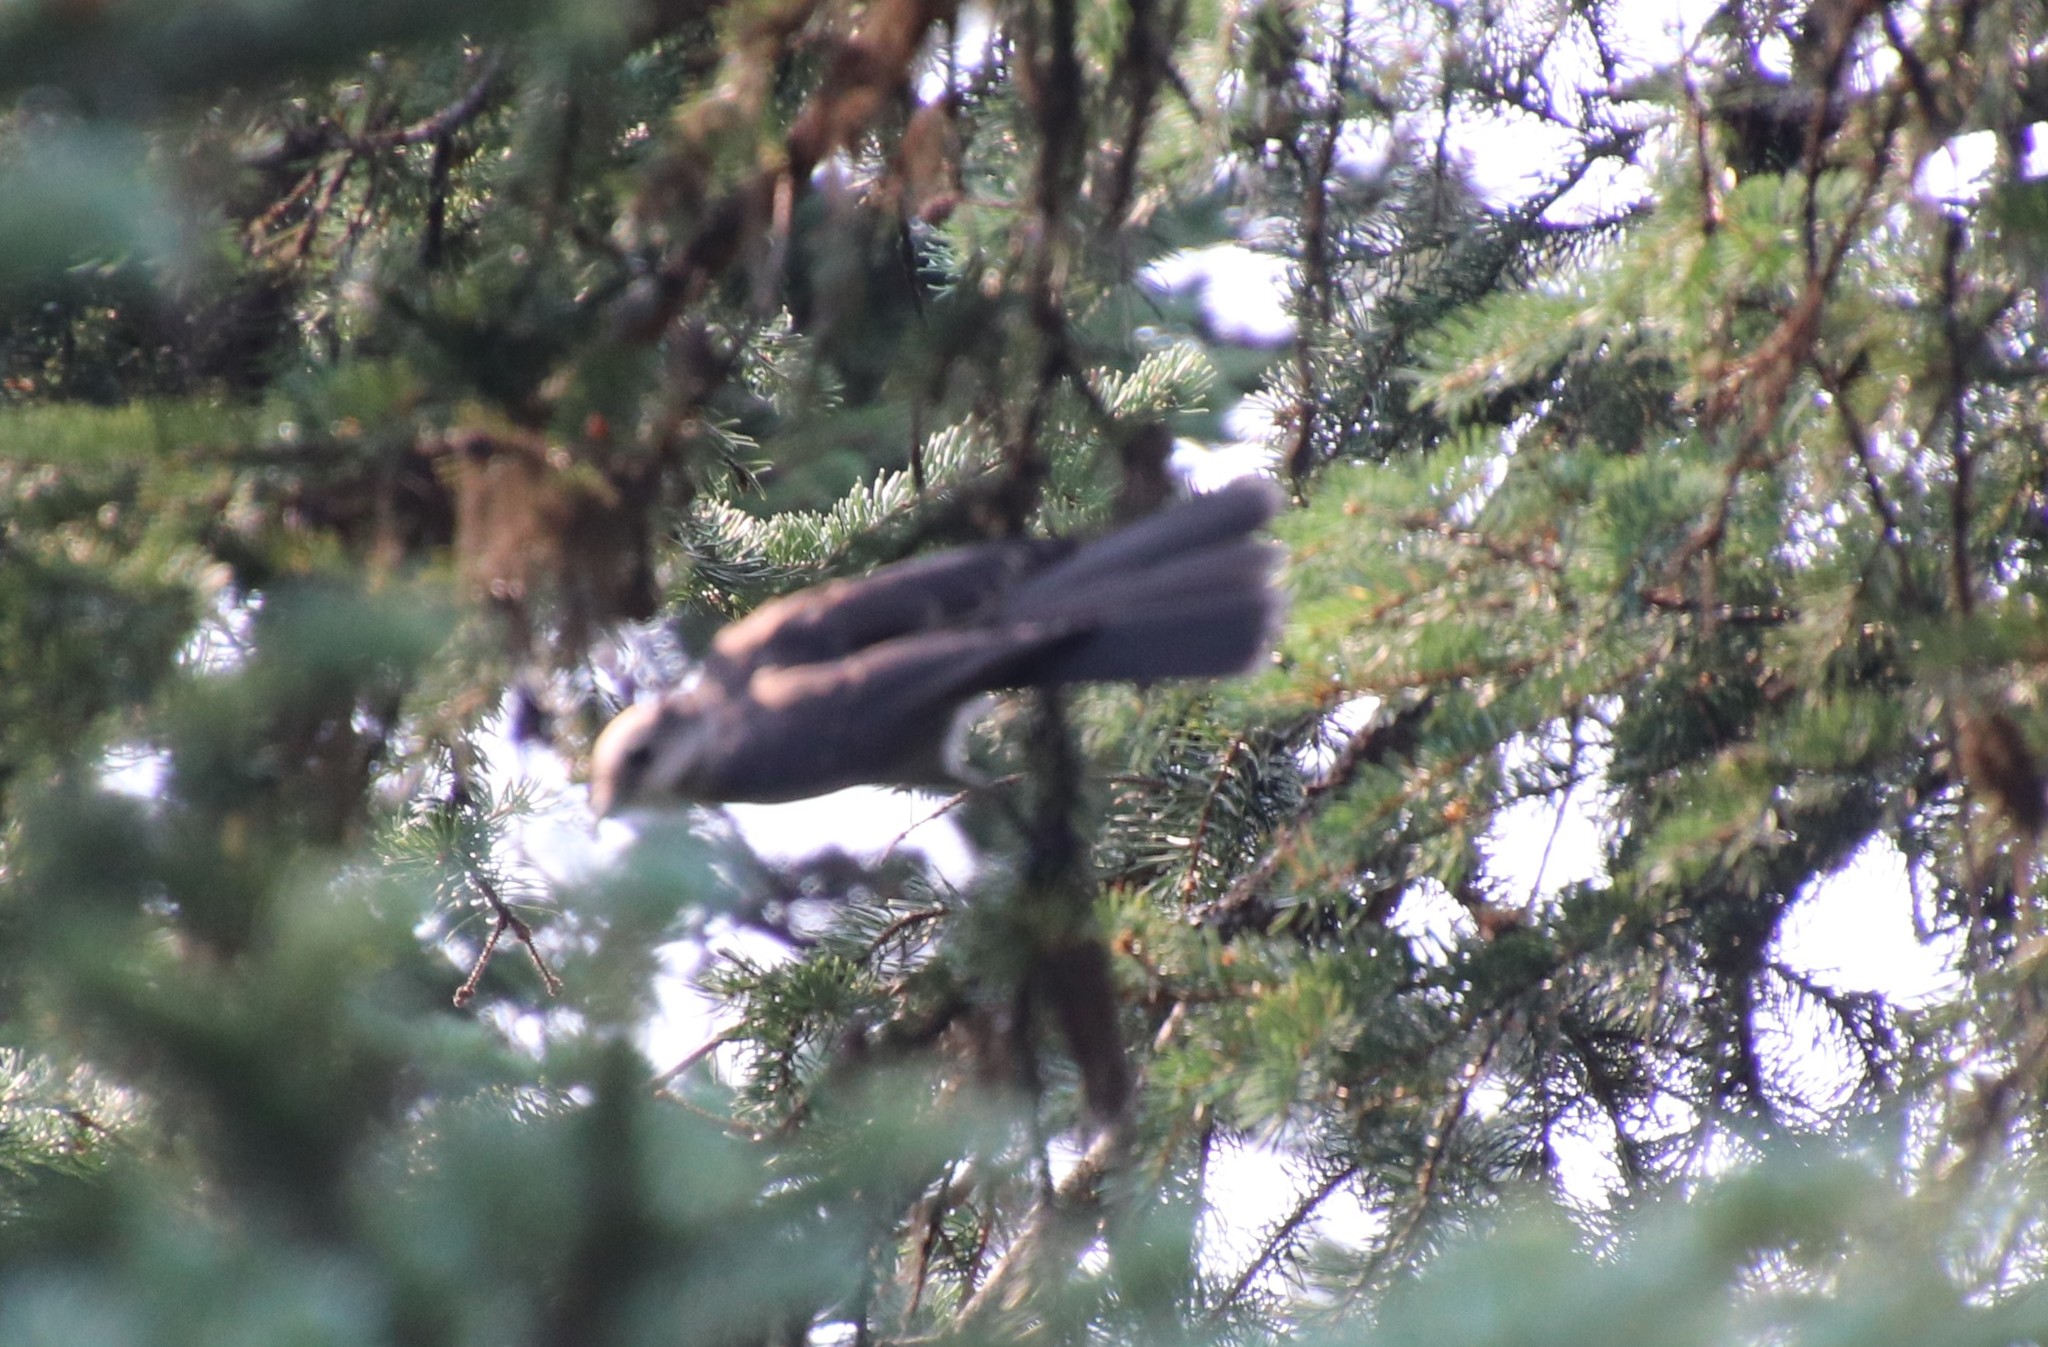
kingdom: Animalia
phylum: Chordata
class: Aves
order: Passeriformes
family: Corvidae
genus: Perisoreus
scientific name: Perisoreus canadensis
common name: Gray jay
